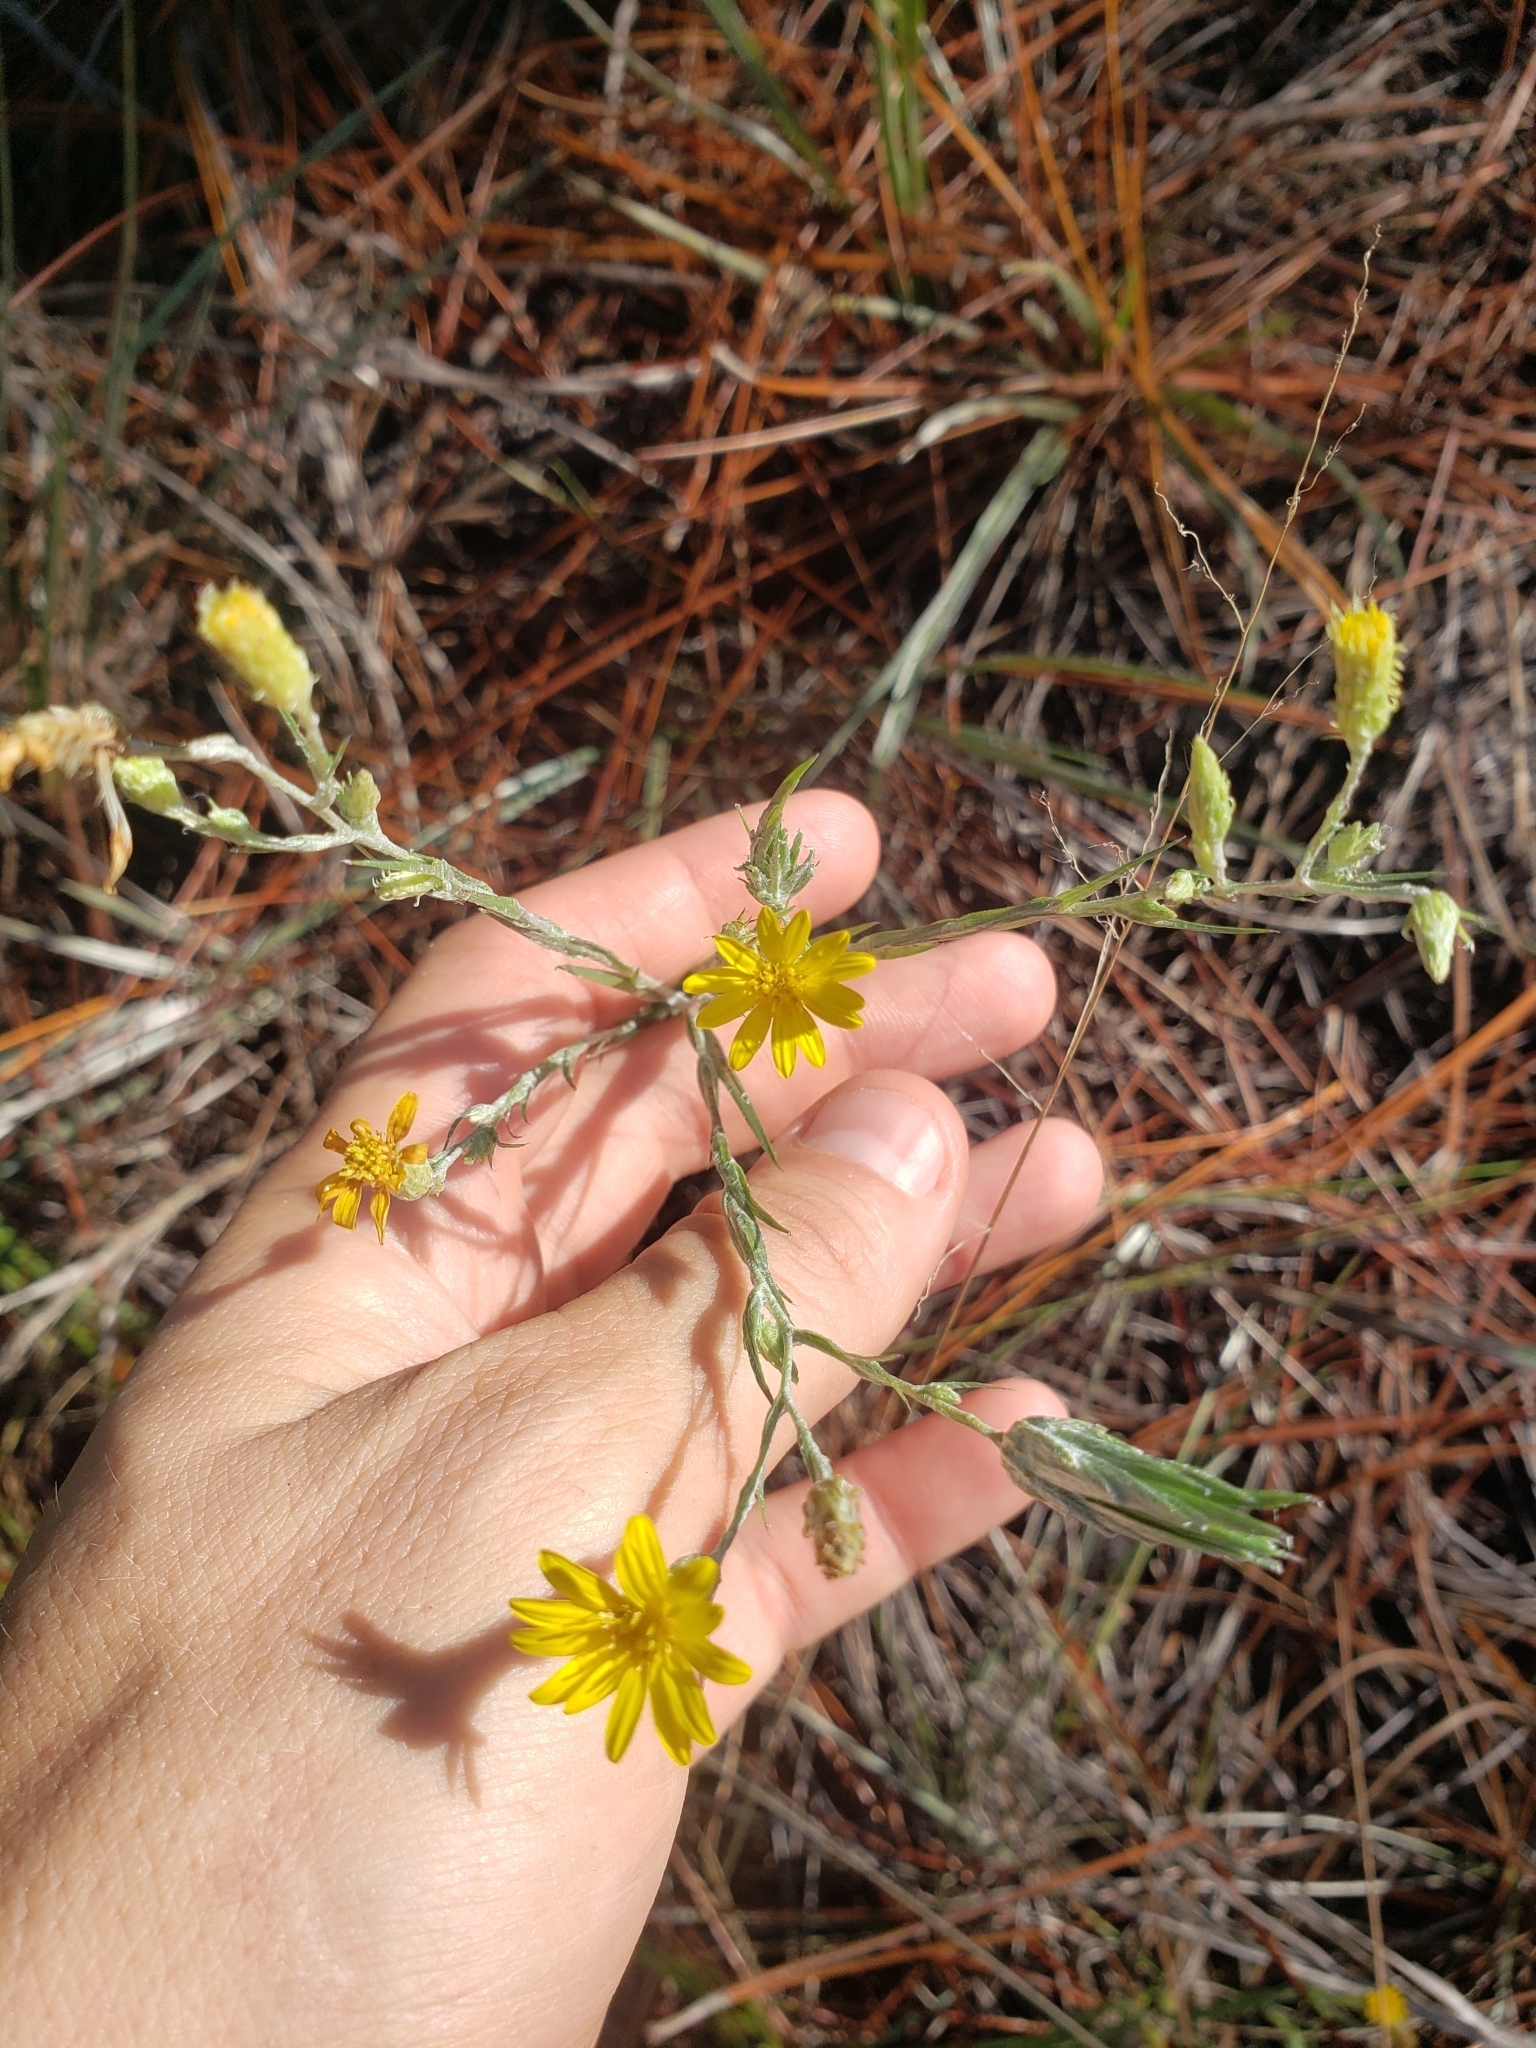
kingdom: Plantae
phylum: Tracheophyta
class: Magnoliopsida
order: Asterales
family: Asteraceae
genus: Pityopsis
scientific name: Pityopsis graminifolia
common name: Grass-leaf golden-aster
